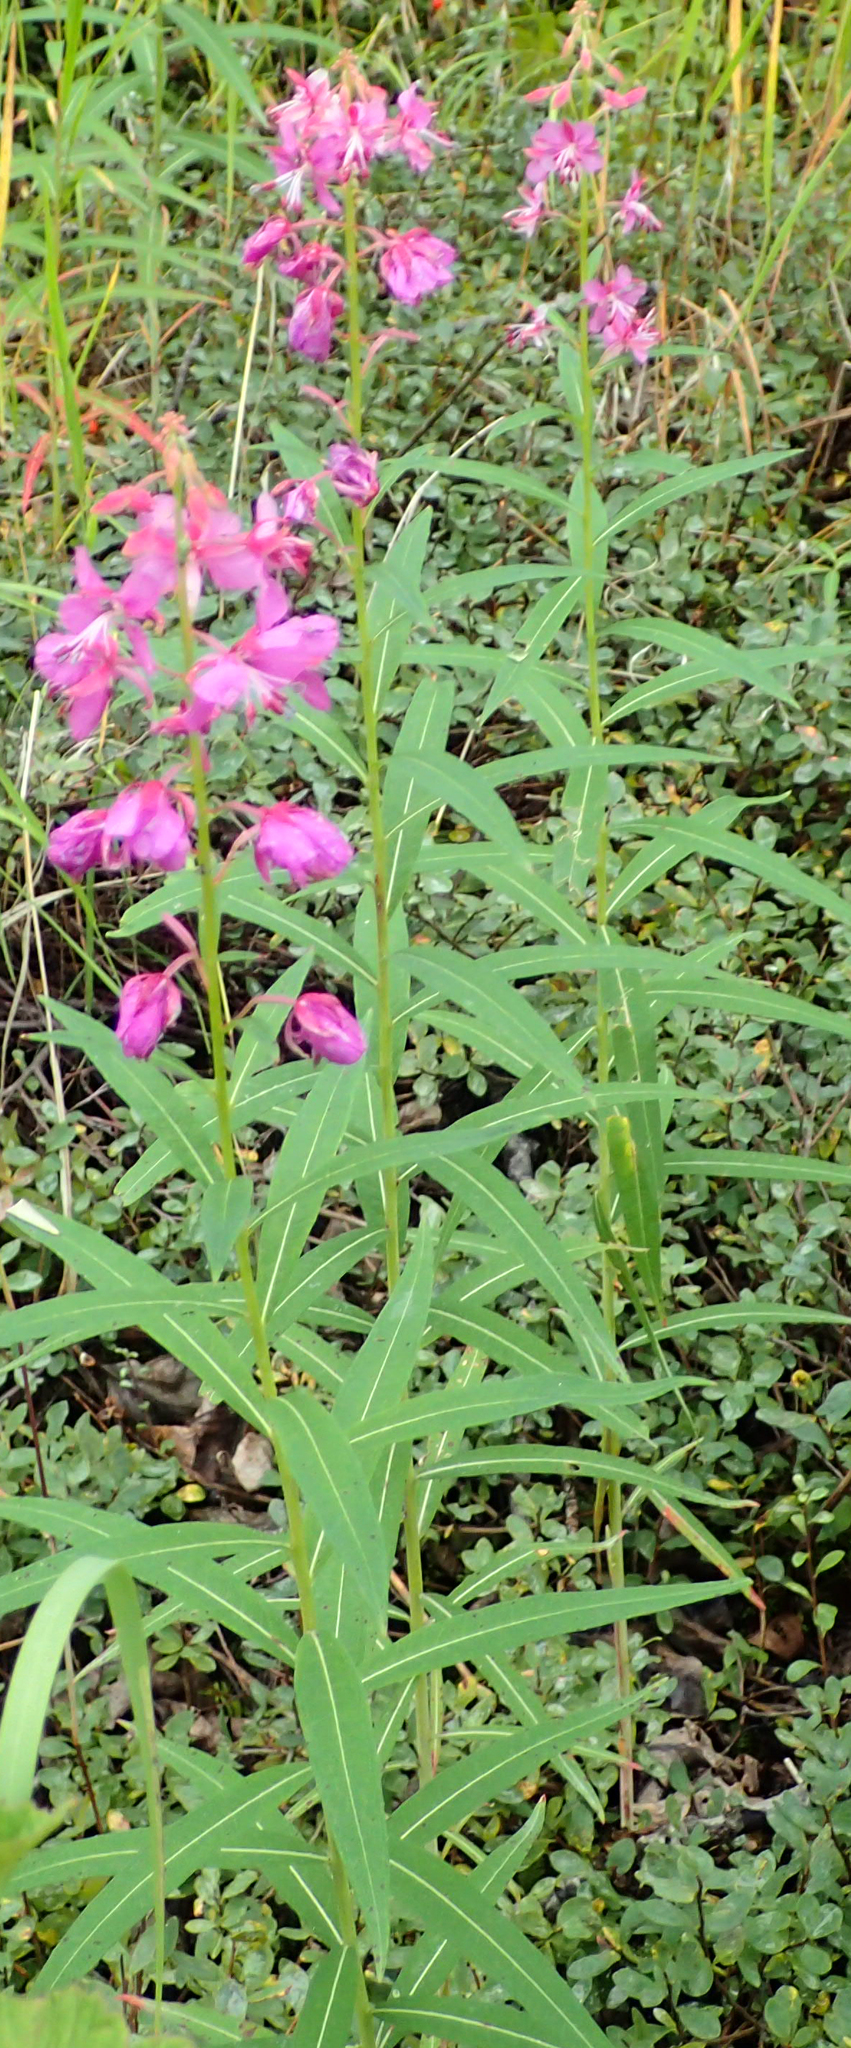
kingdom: Plantae
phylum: Tracheophyta
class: Magnoliopsida
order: Myrtales
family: Onagraceae
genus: Chamaenerion
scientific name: Chamaenerion angustifolium
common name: Fireweed
